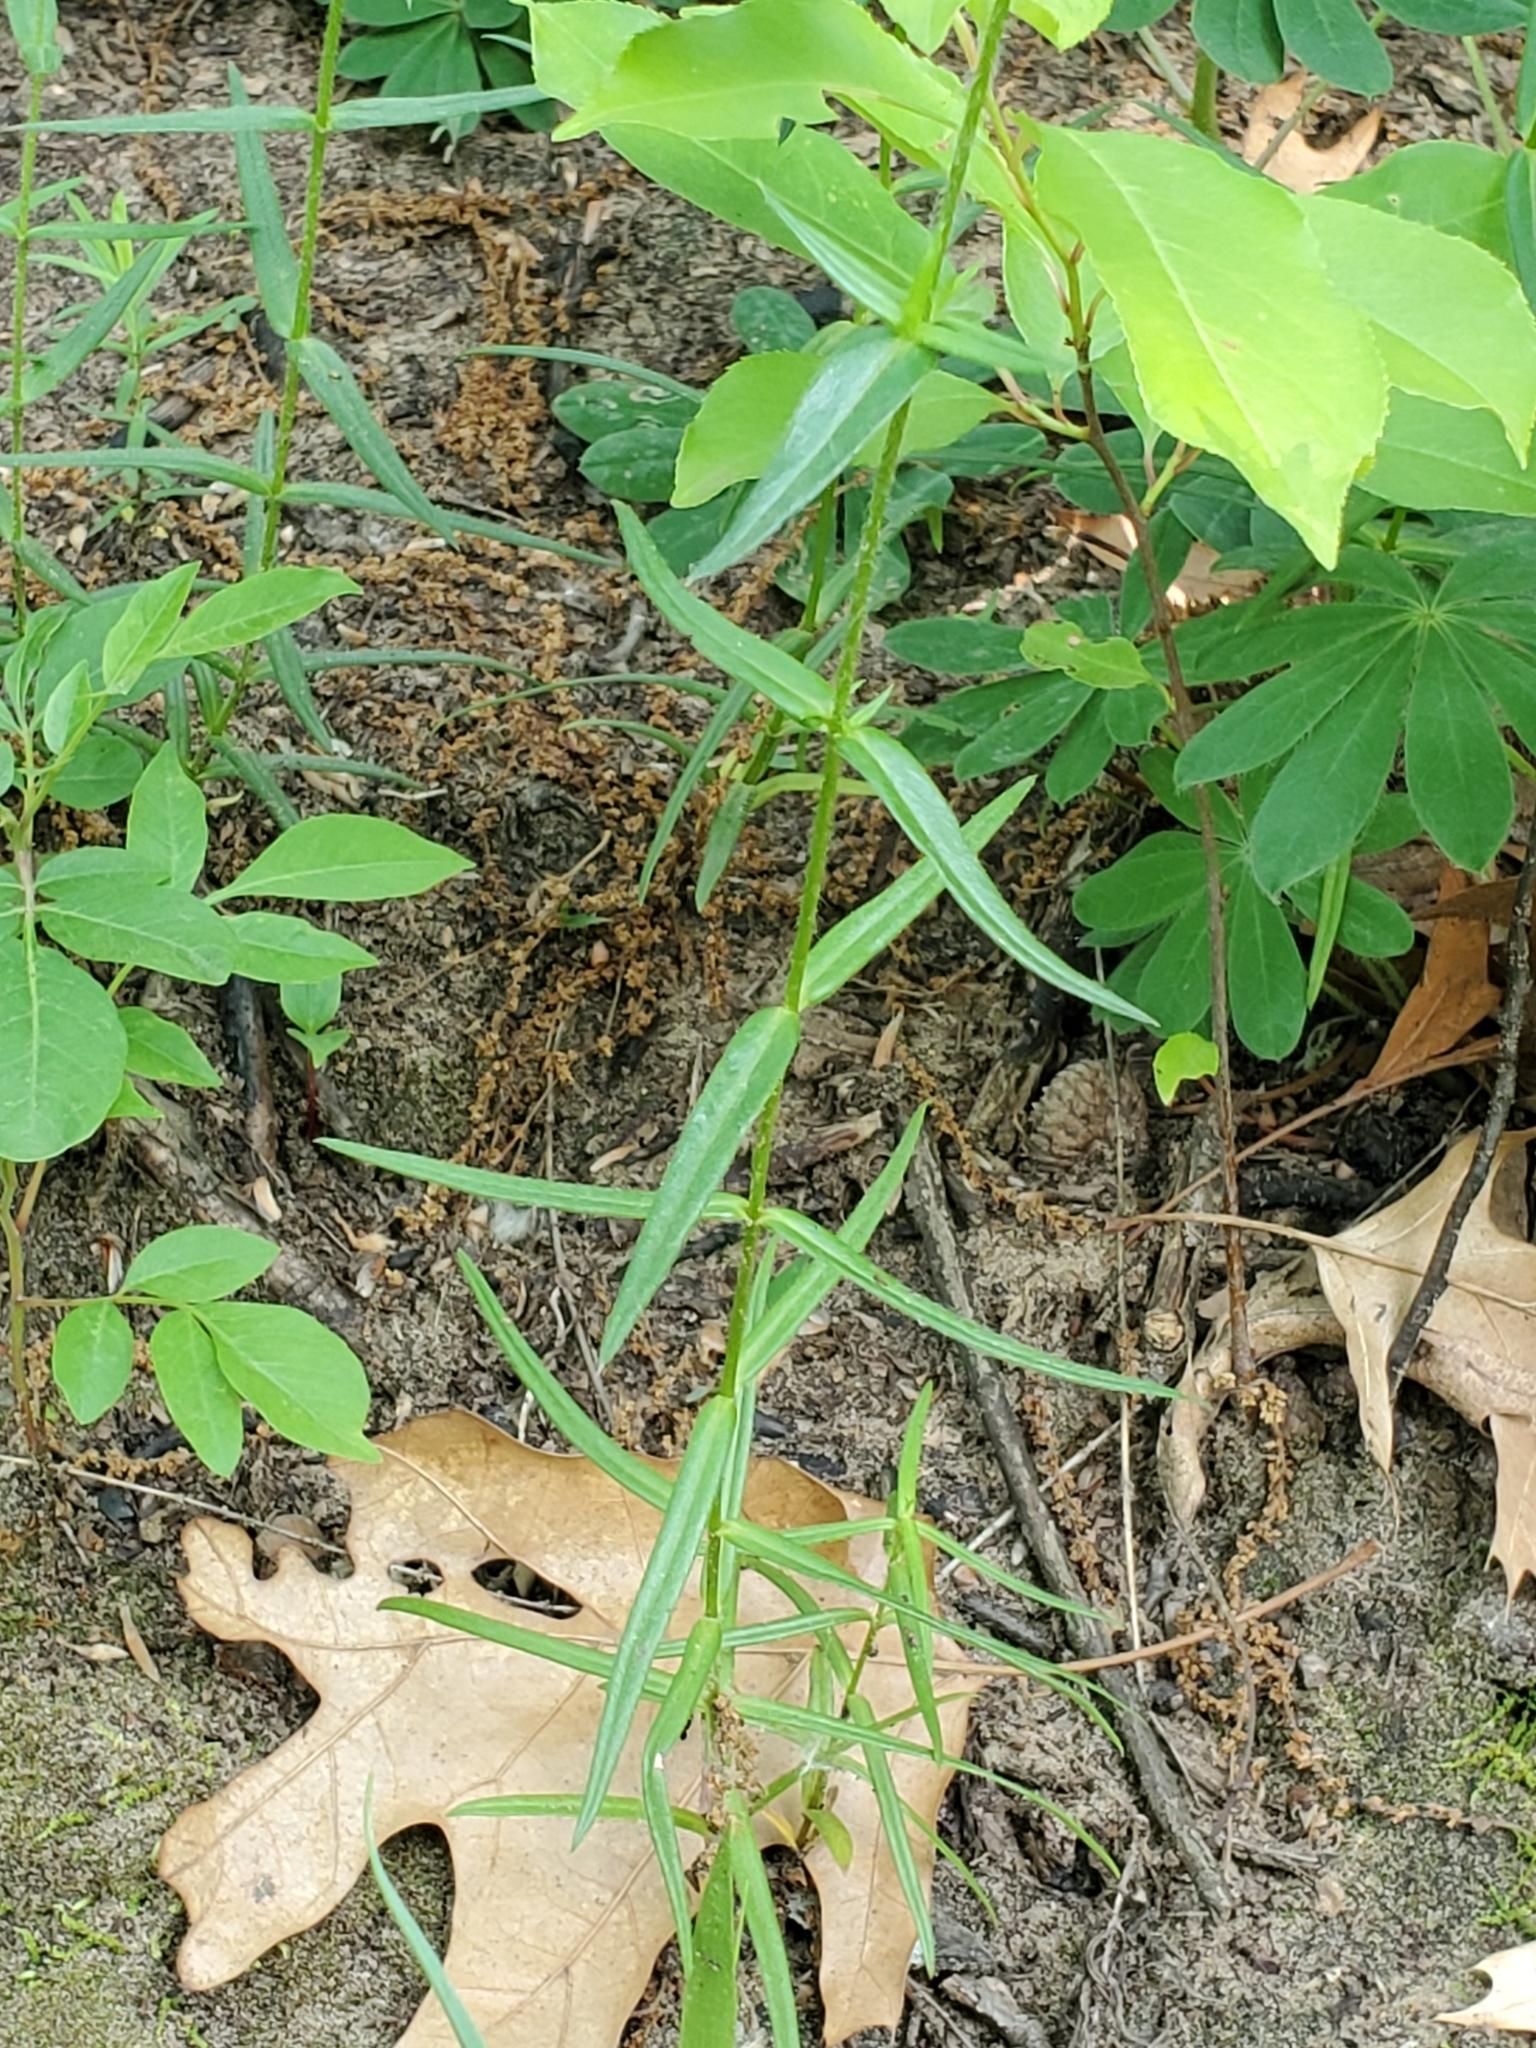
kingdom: Plantae
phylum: Tracheophyta
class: Magnoliopsida
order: Ericales
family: Polemoniaceae
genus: Phlox
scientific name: Phlox pilosa
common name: Prairie phlox
